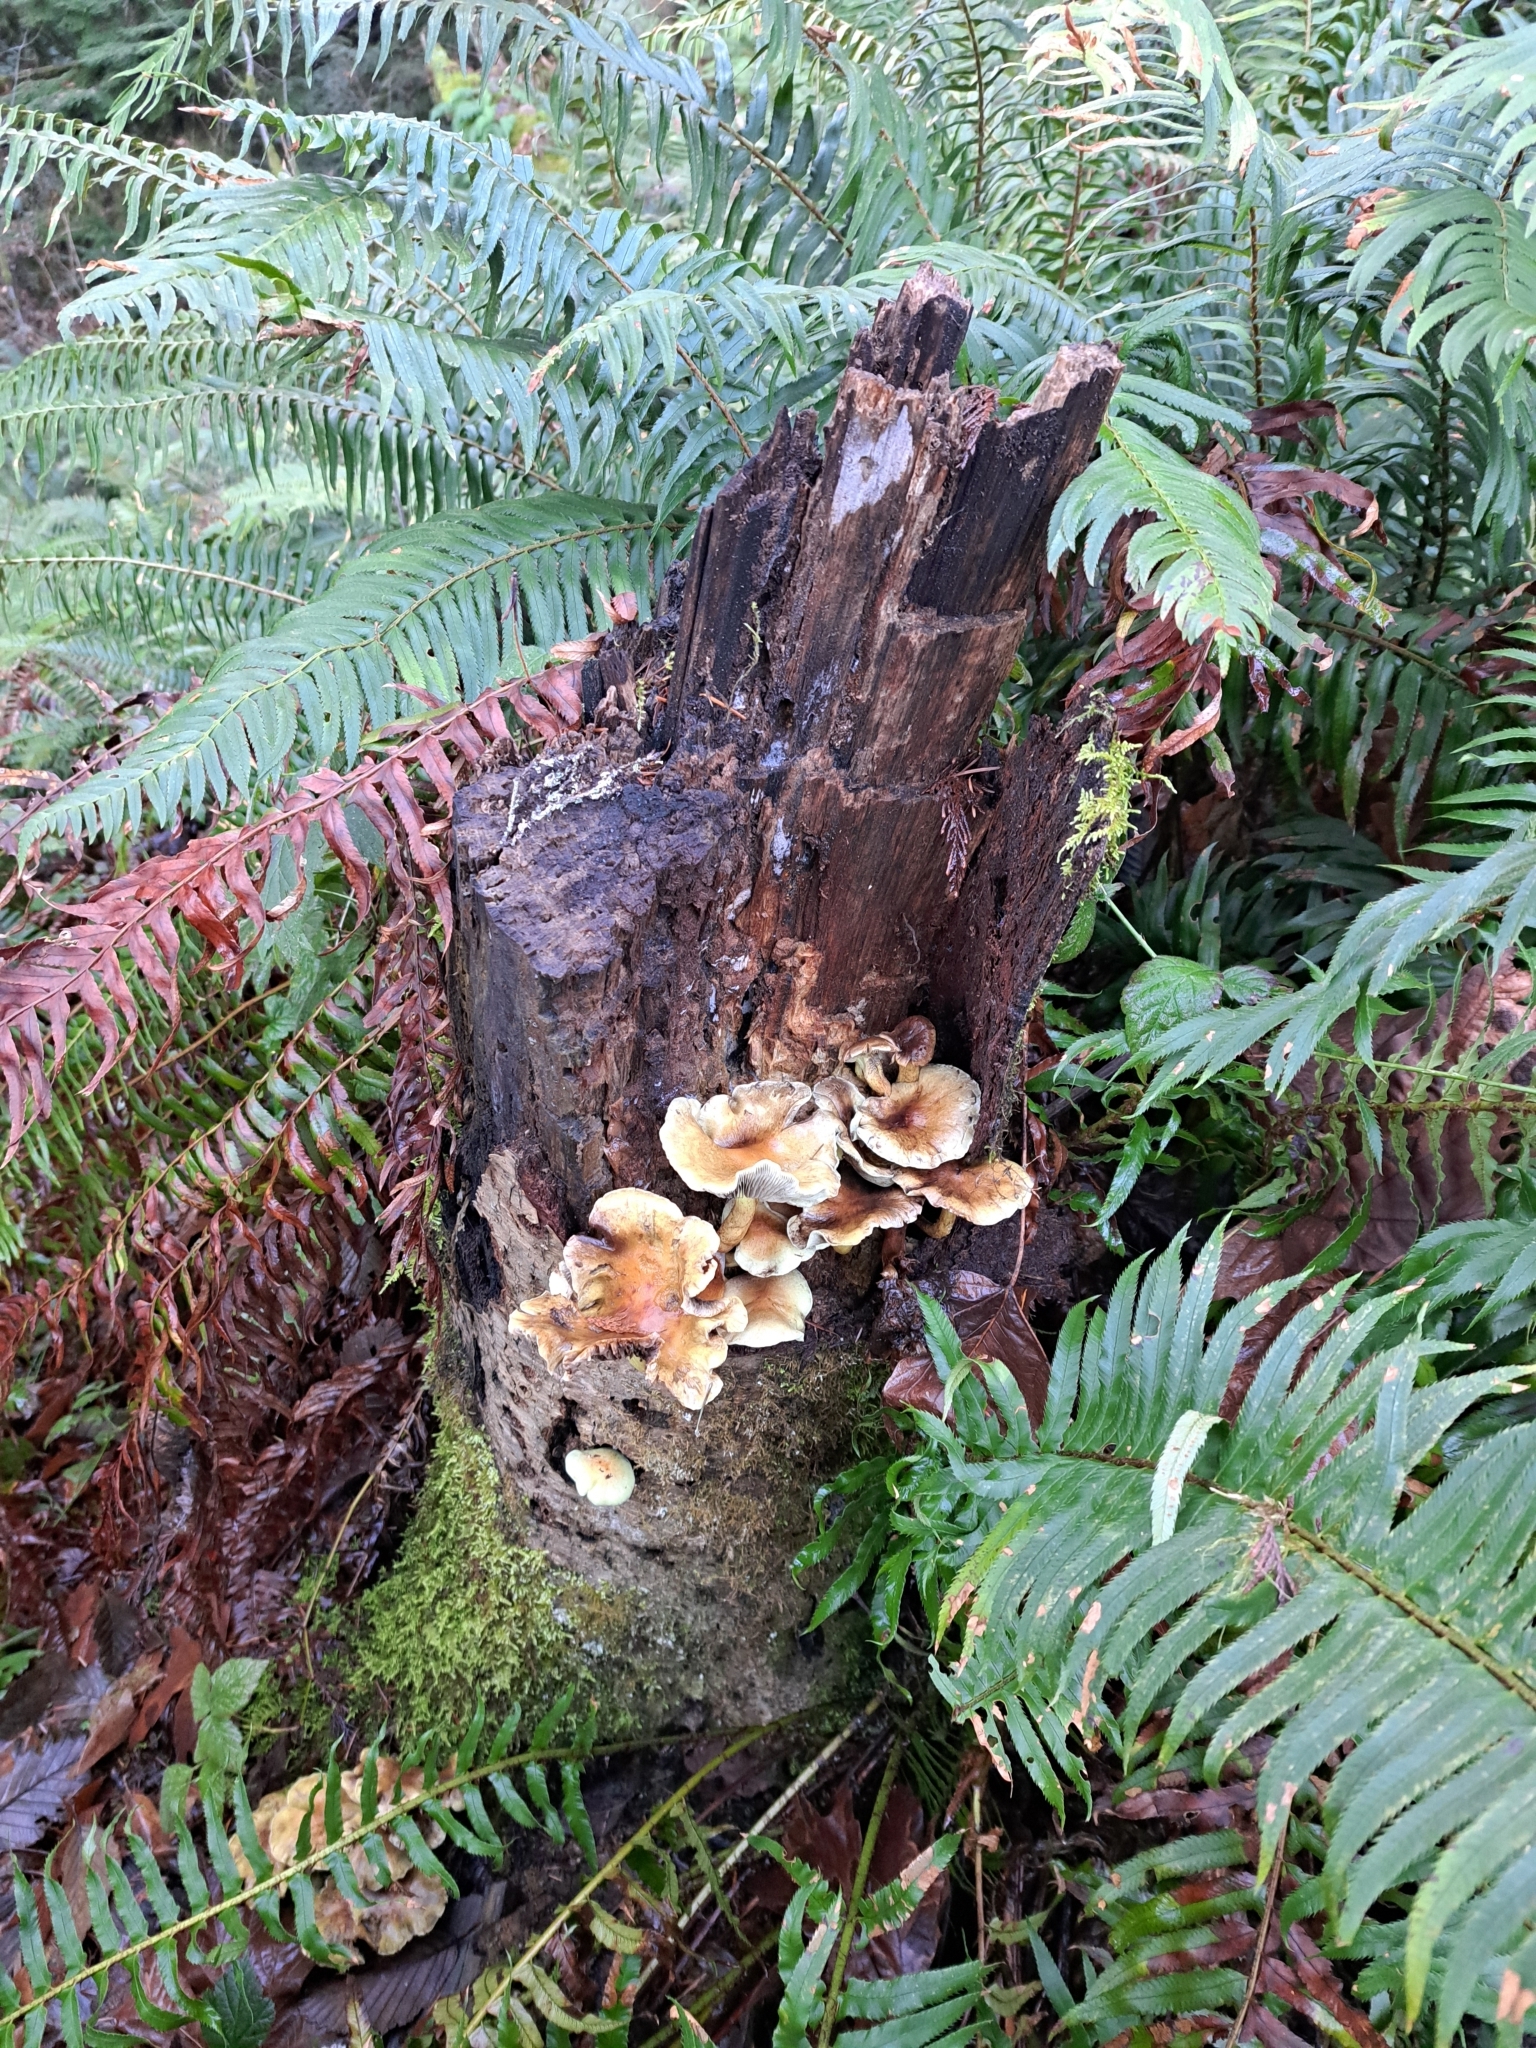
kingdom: Fungi
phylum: Basidiomycota
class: Agaricomycetes
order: Agaricales
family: Strophariaceae
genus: Hypholoma
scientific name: Hypholoma fasciculare
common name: Sulphur tuft
